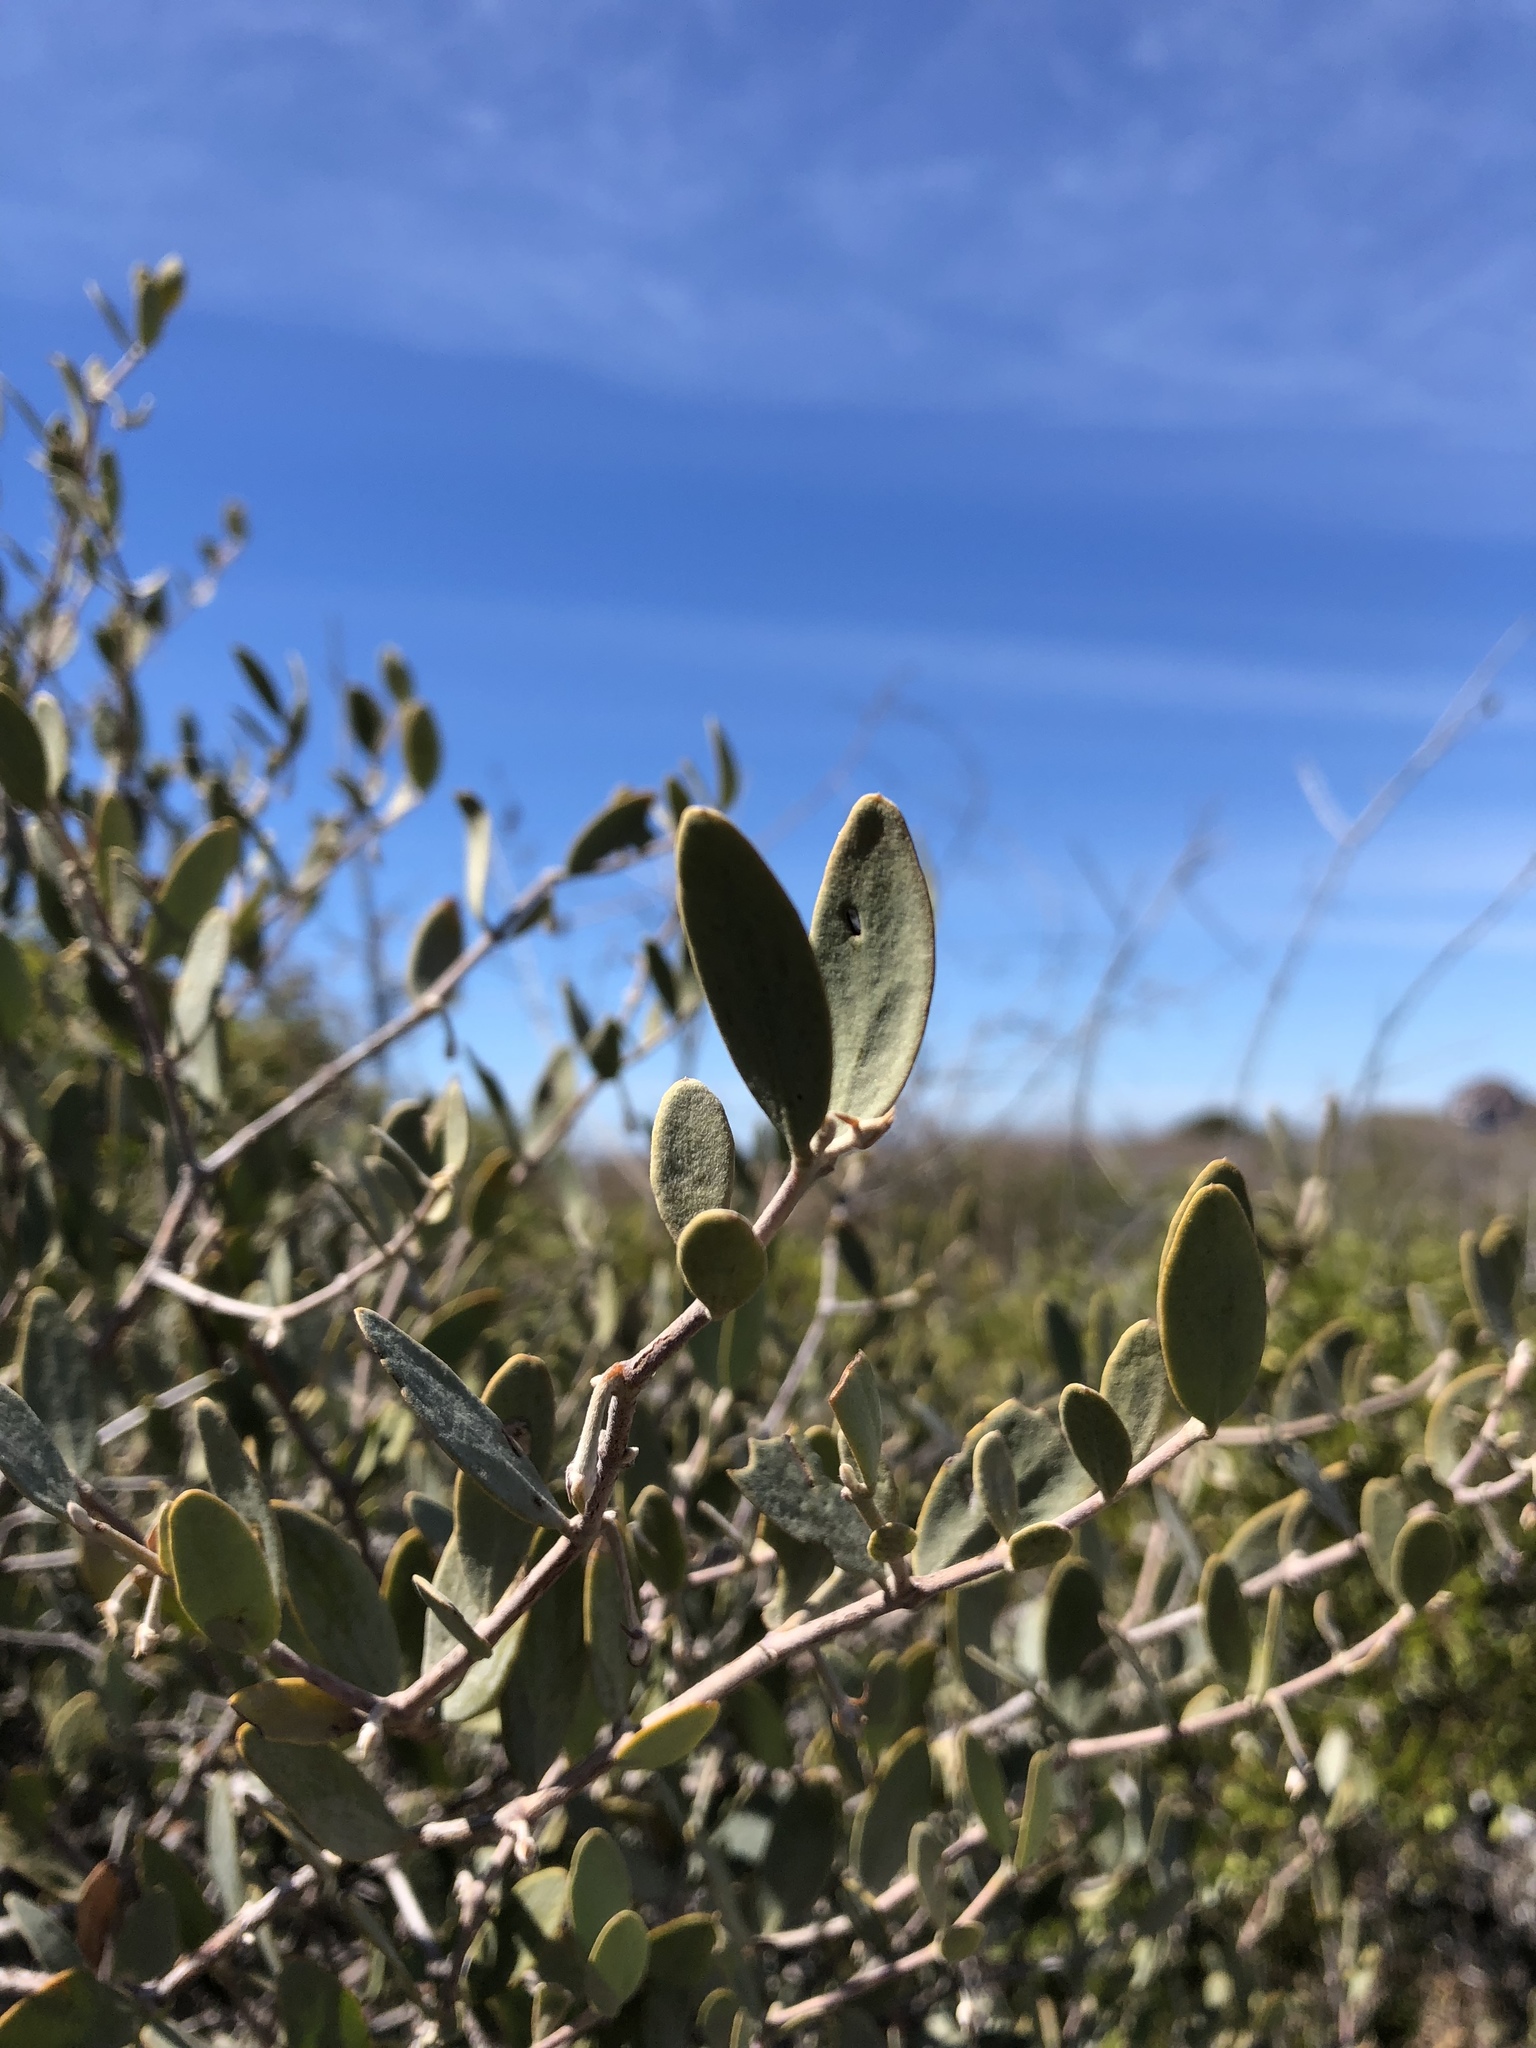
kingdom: Plantae
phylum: Tracheophyta
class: Magnoliopsida
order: Caryophyllales
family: Simmondsiaceae
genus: Simmondsia
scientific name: Simmondsia chinensis
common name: Jojoba
